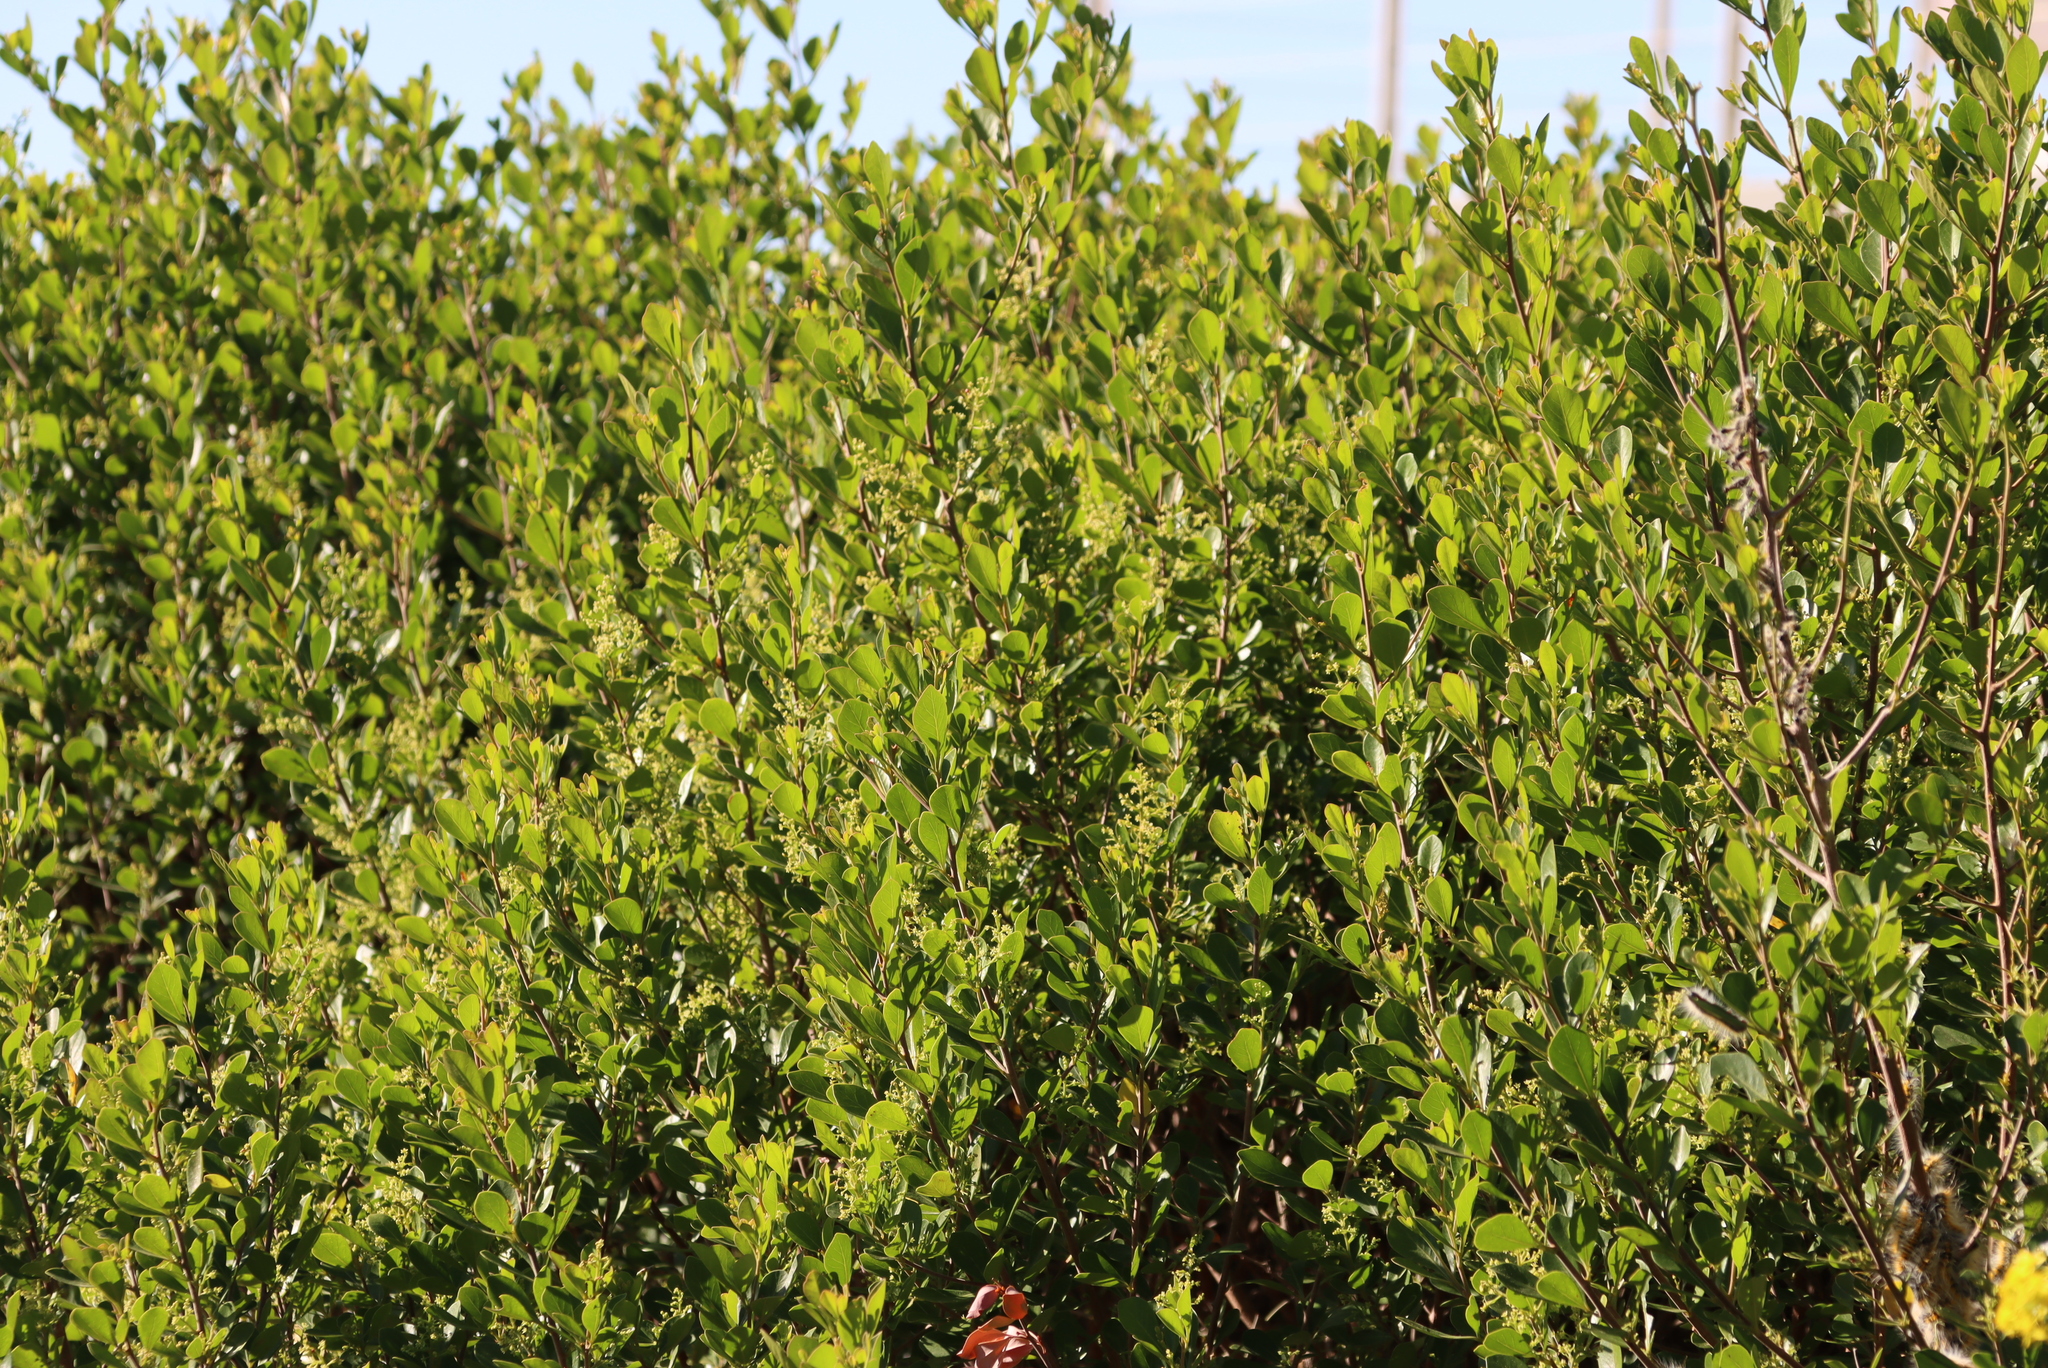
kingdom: Plantae
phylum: Tracheophyta
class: Magnoliopsida
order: Sapindales
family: Anacardiaceae
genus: Searsia
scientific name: Searsia lucida
